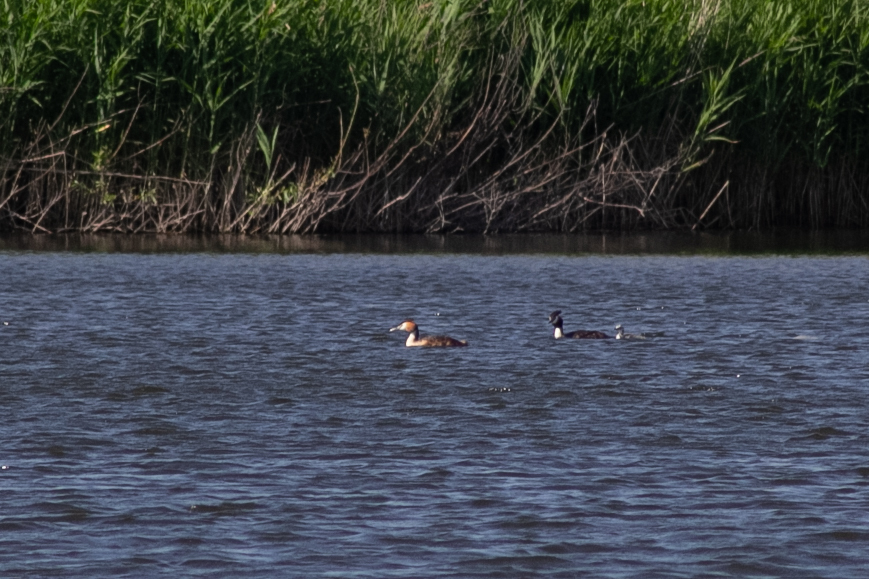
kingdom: Animalia
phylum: Chordata
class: Aves
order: Podicipediformes
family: Podicipedidae
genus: Podiceps
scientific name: Podiceps cristatus
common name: Great crested grebe
